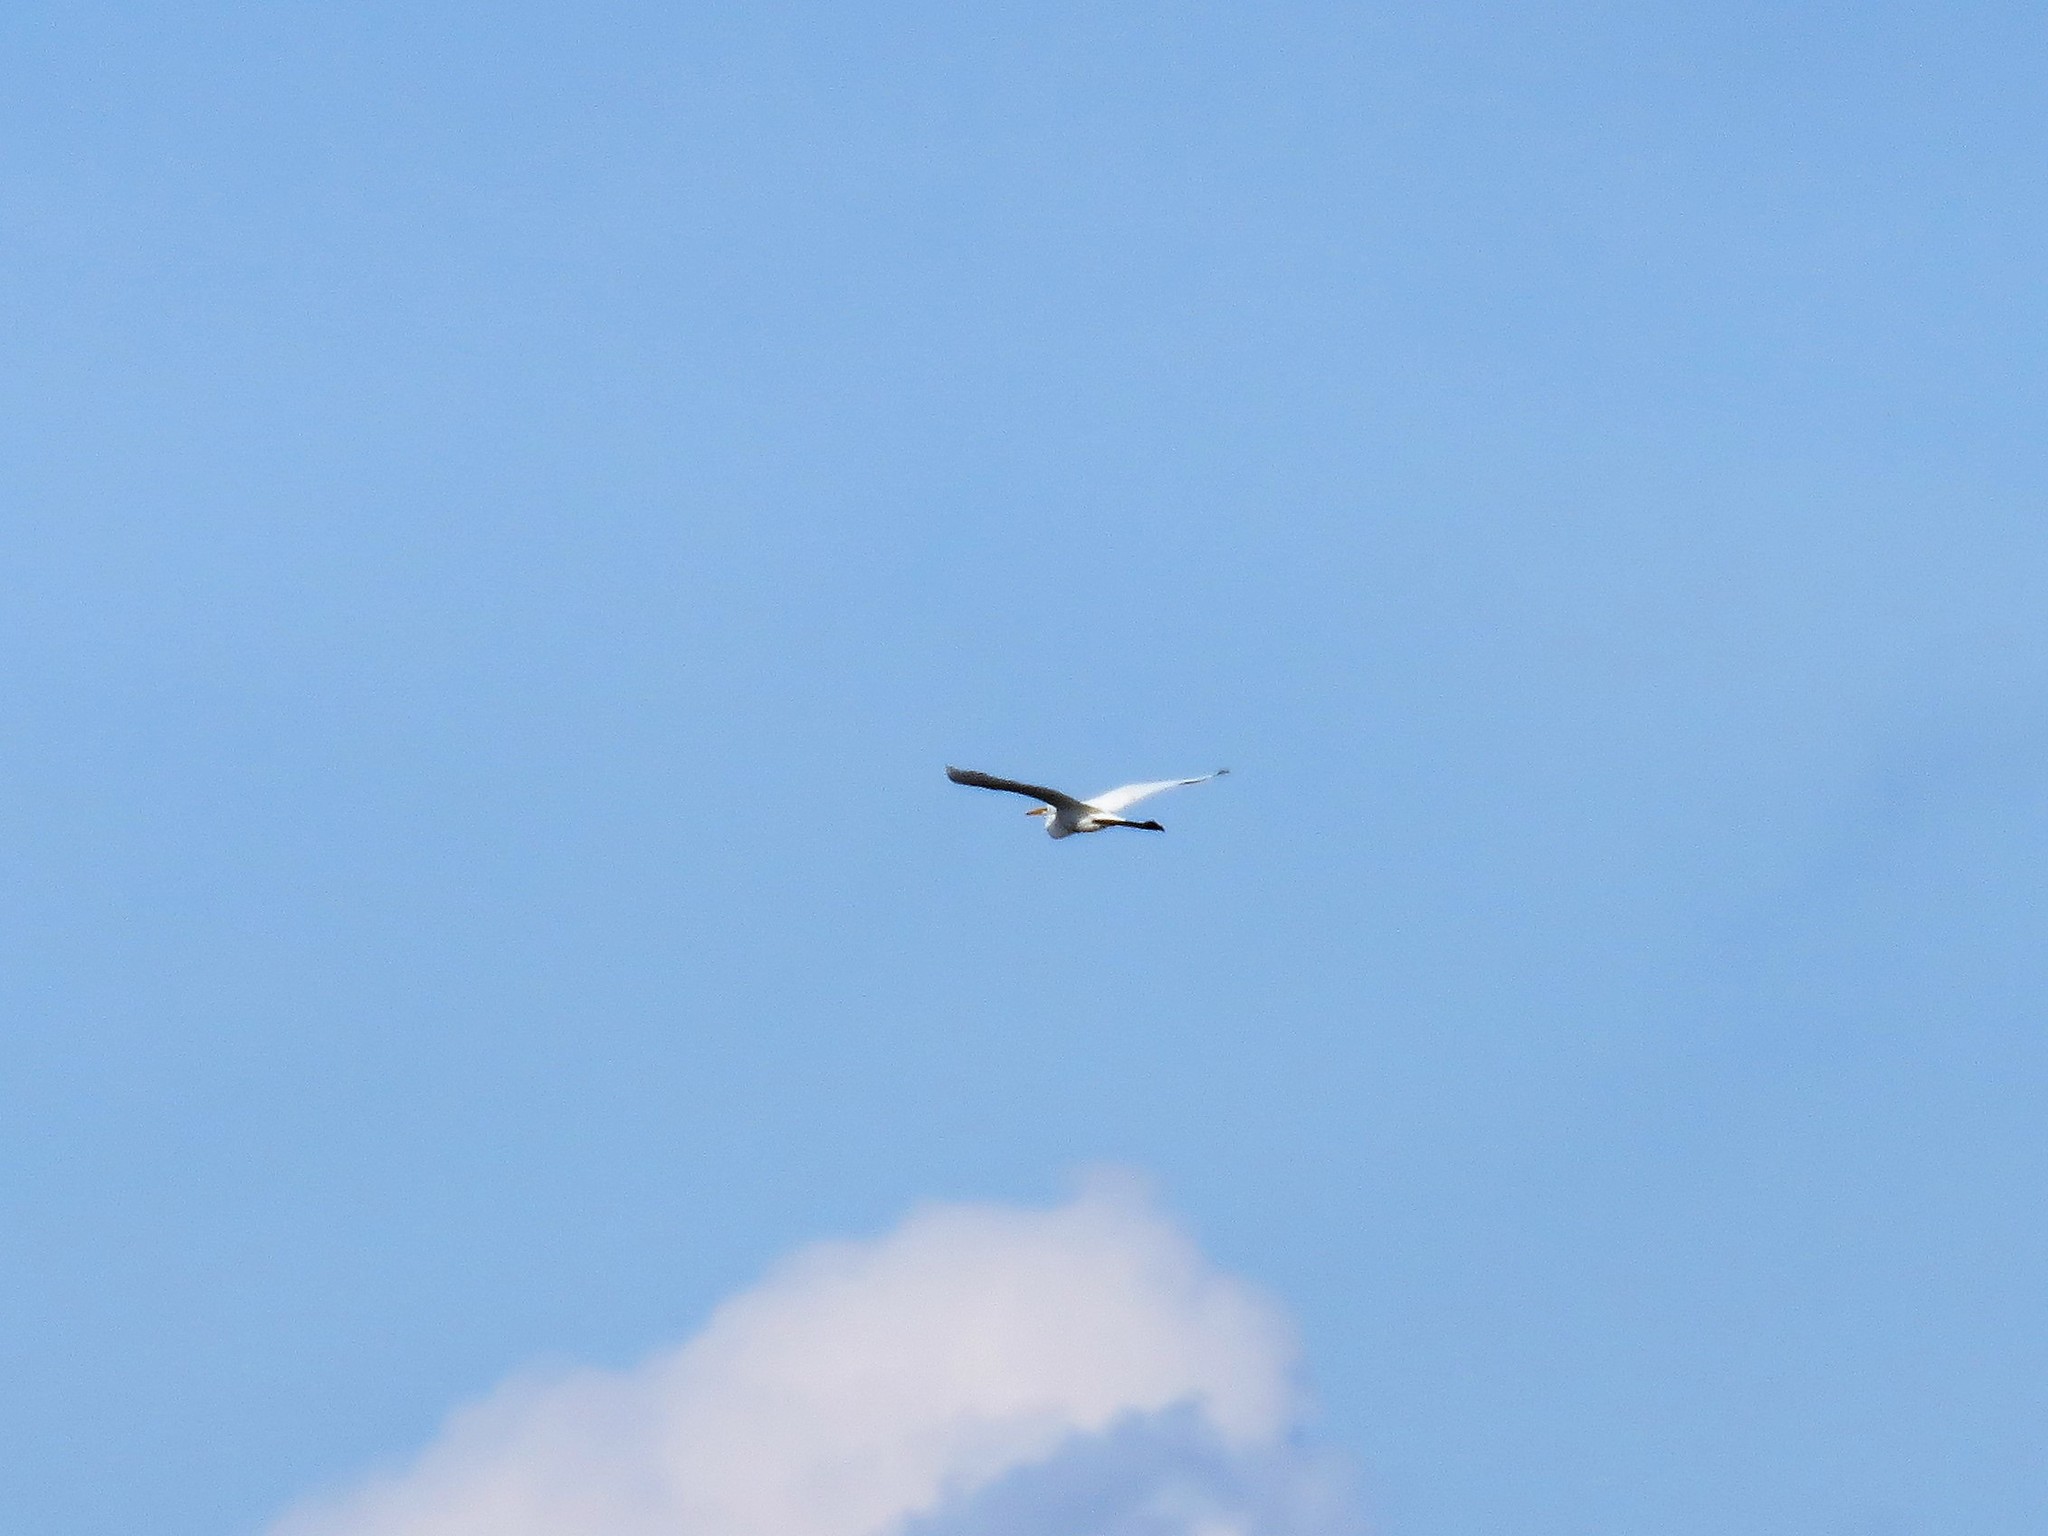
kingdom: Animalia
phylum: Chordata
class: Aves
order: Pelecaniformes
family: Ardeidae
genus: Ardea
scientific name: Ardea alba
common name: Great egret
